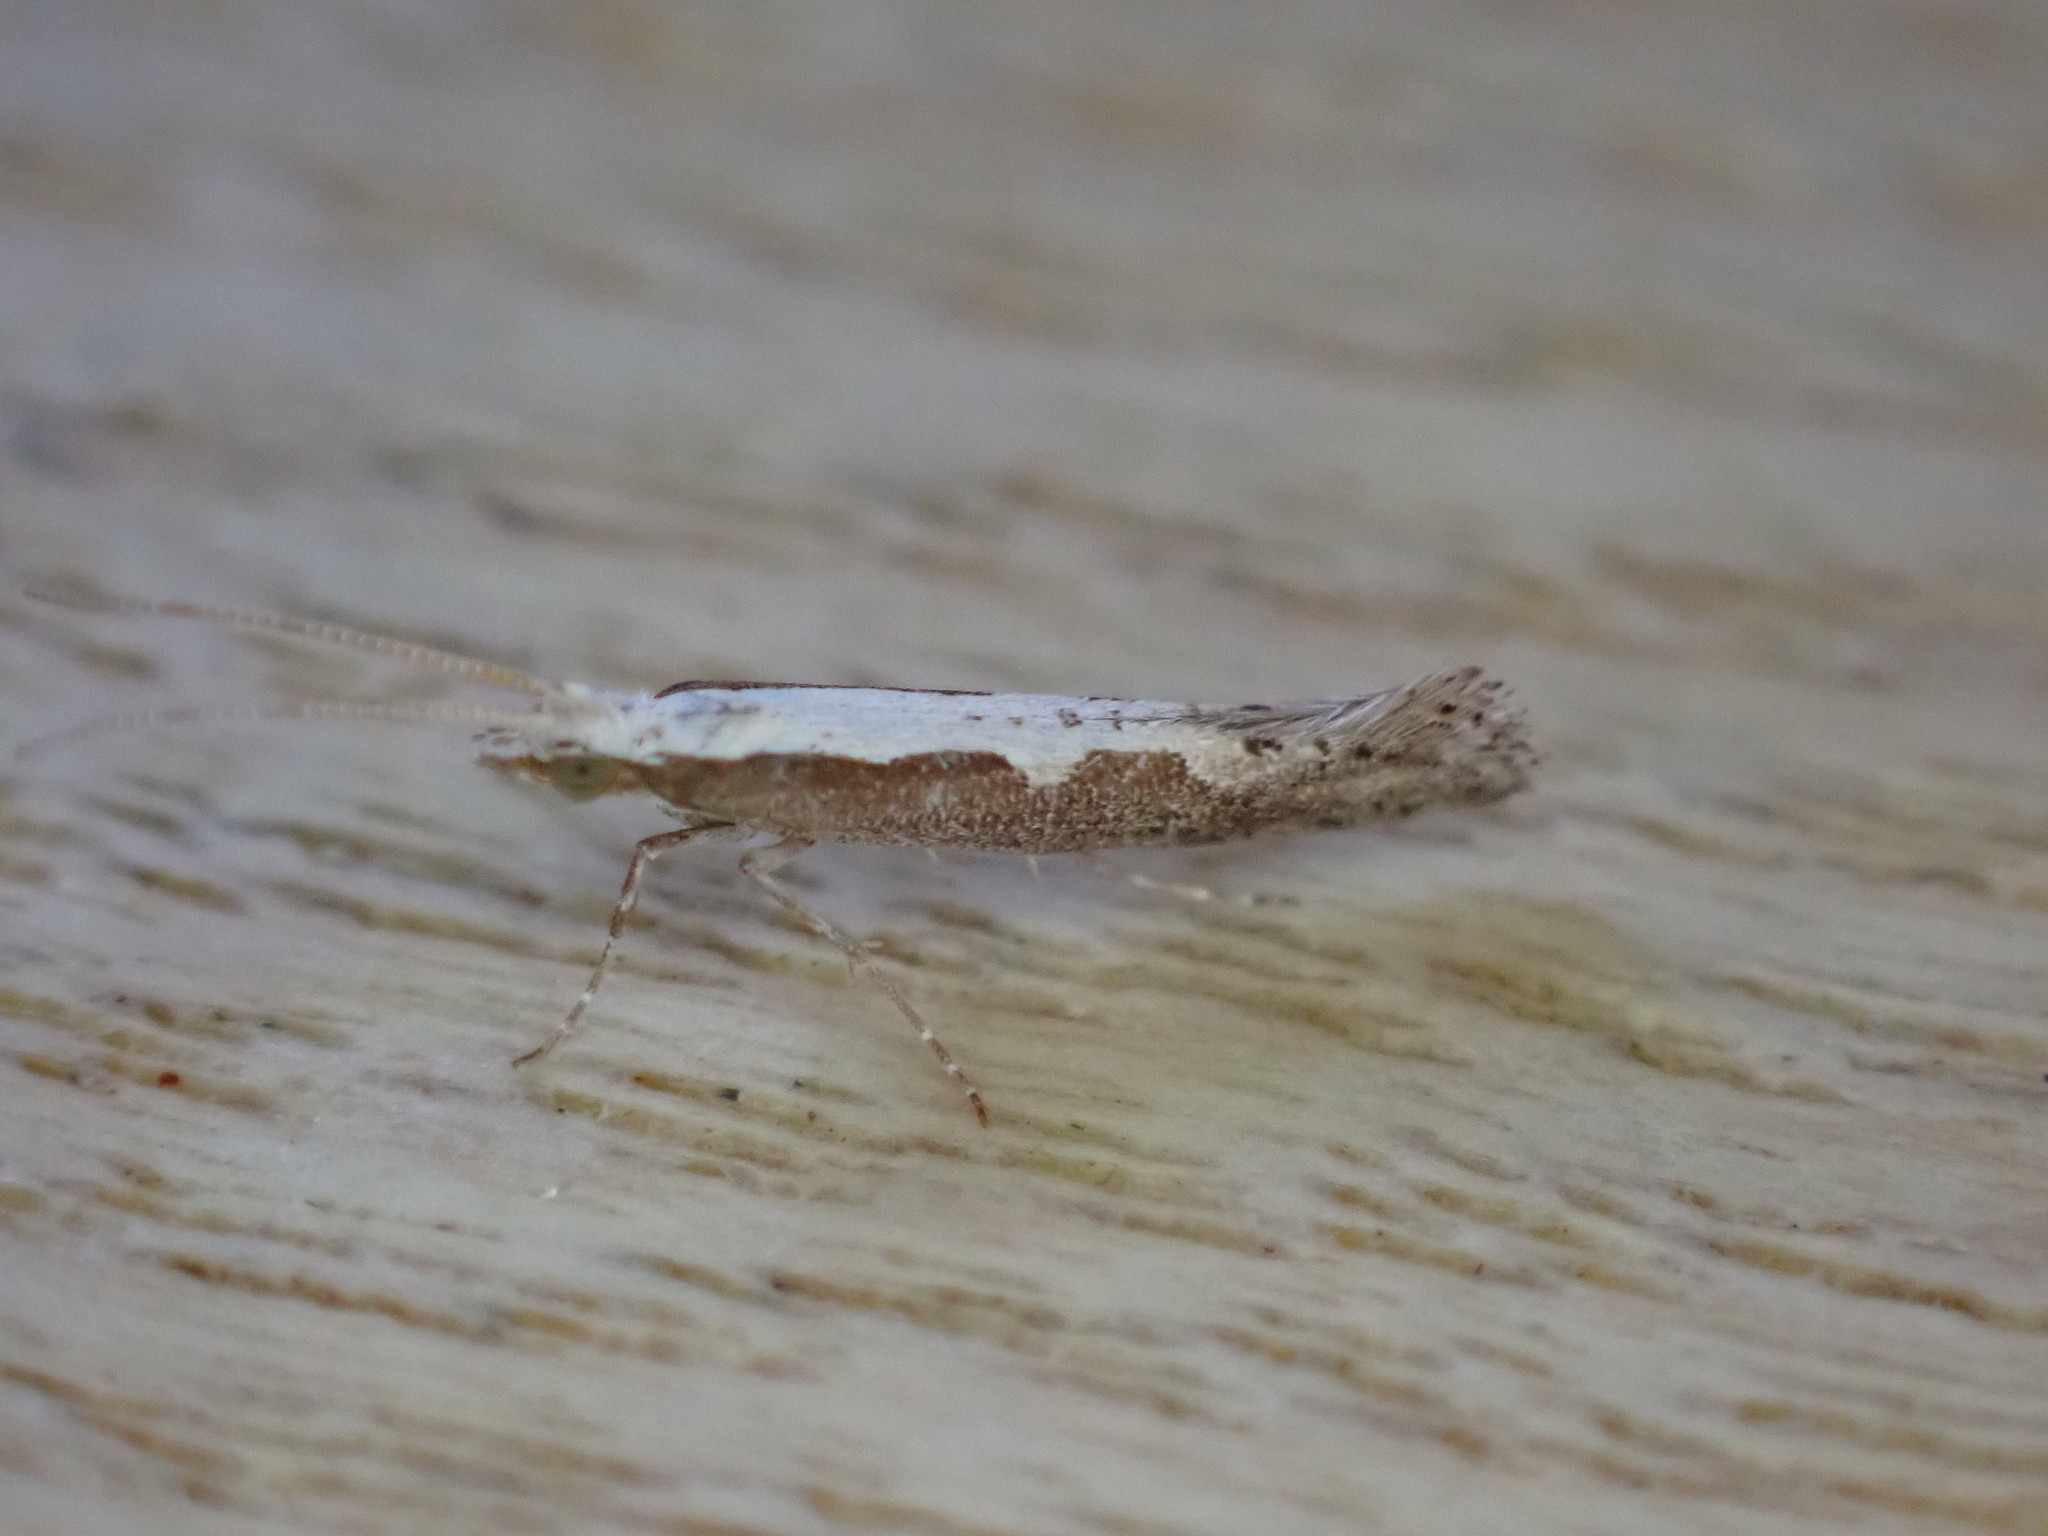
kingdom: Animalia
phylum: Arthropoda
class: Insecta
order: Lepidoptera
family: Plutellidae
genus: Plutella
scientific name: Plutella xylostella
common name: Diamond-back moth
